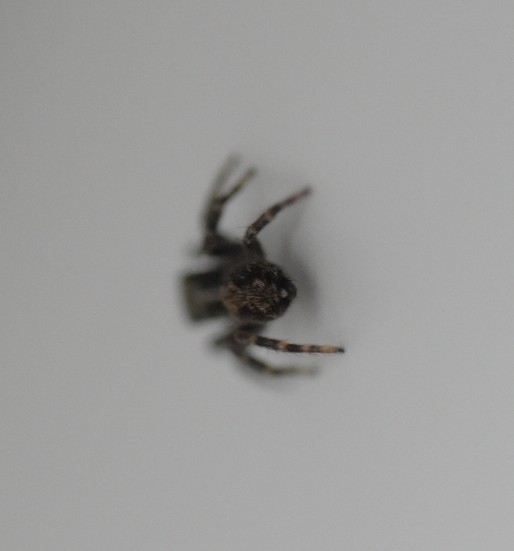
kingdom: Animalia
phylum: Arthropoda
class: Arachnida
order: Araneae
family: Salticidae
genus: Pseudeuophrys
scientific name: Pseudeuophrys lanigera
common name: Jumping spider
